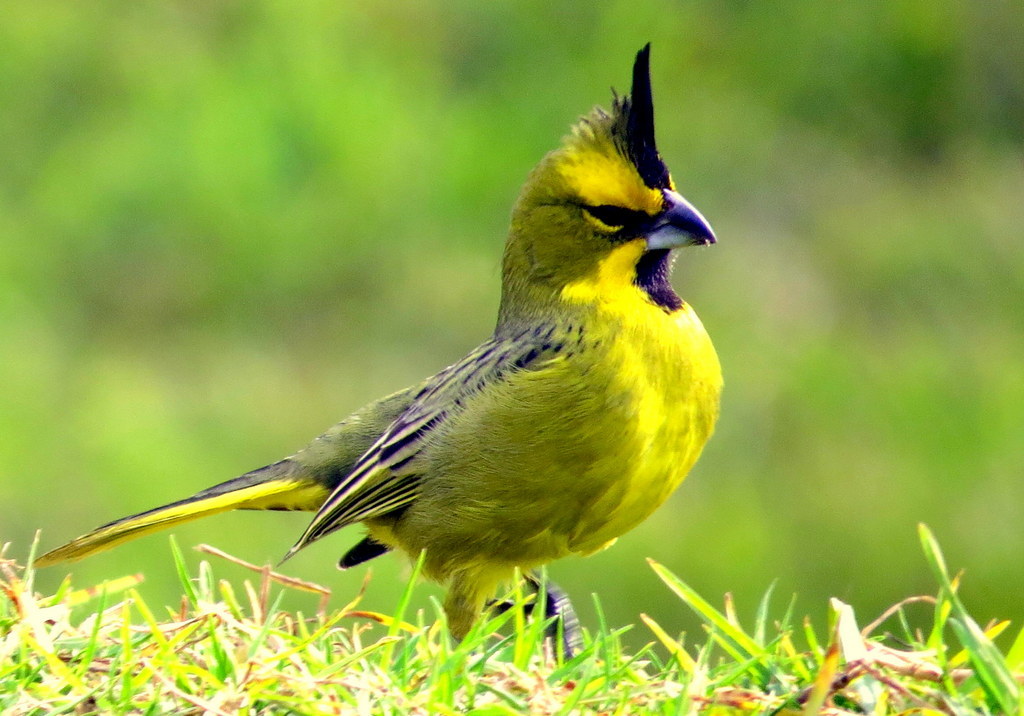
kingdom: Animalia
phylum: Chordata
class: Aves
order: Passeriformes
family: Thraupidae
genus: Gubernatrix
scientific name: Gubernatrix cristata
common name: Yellow cardinal
